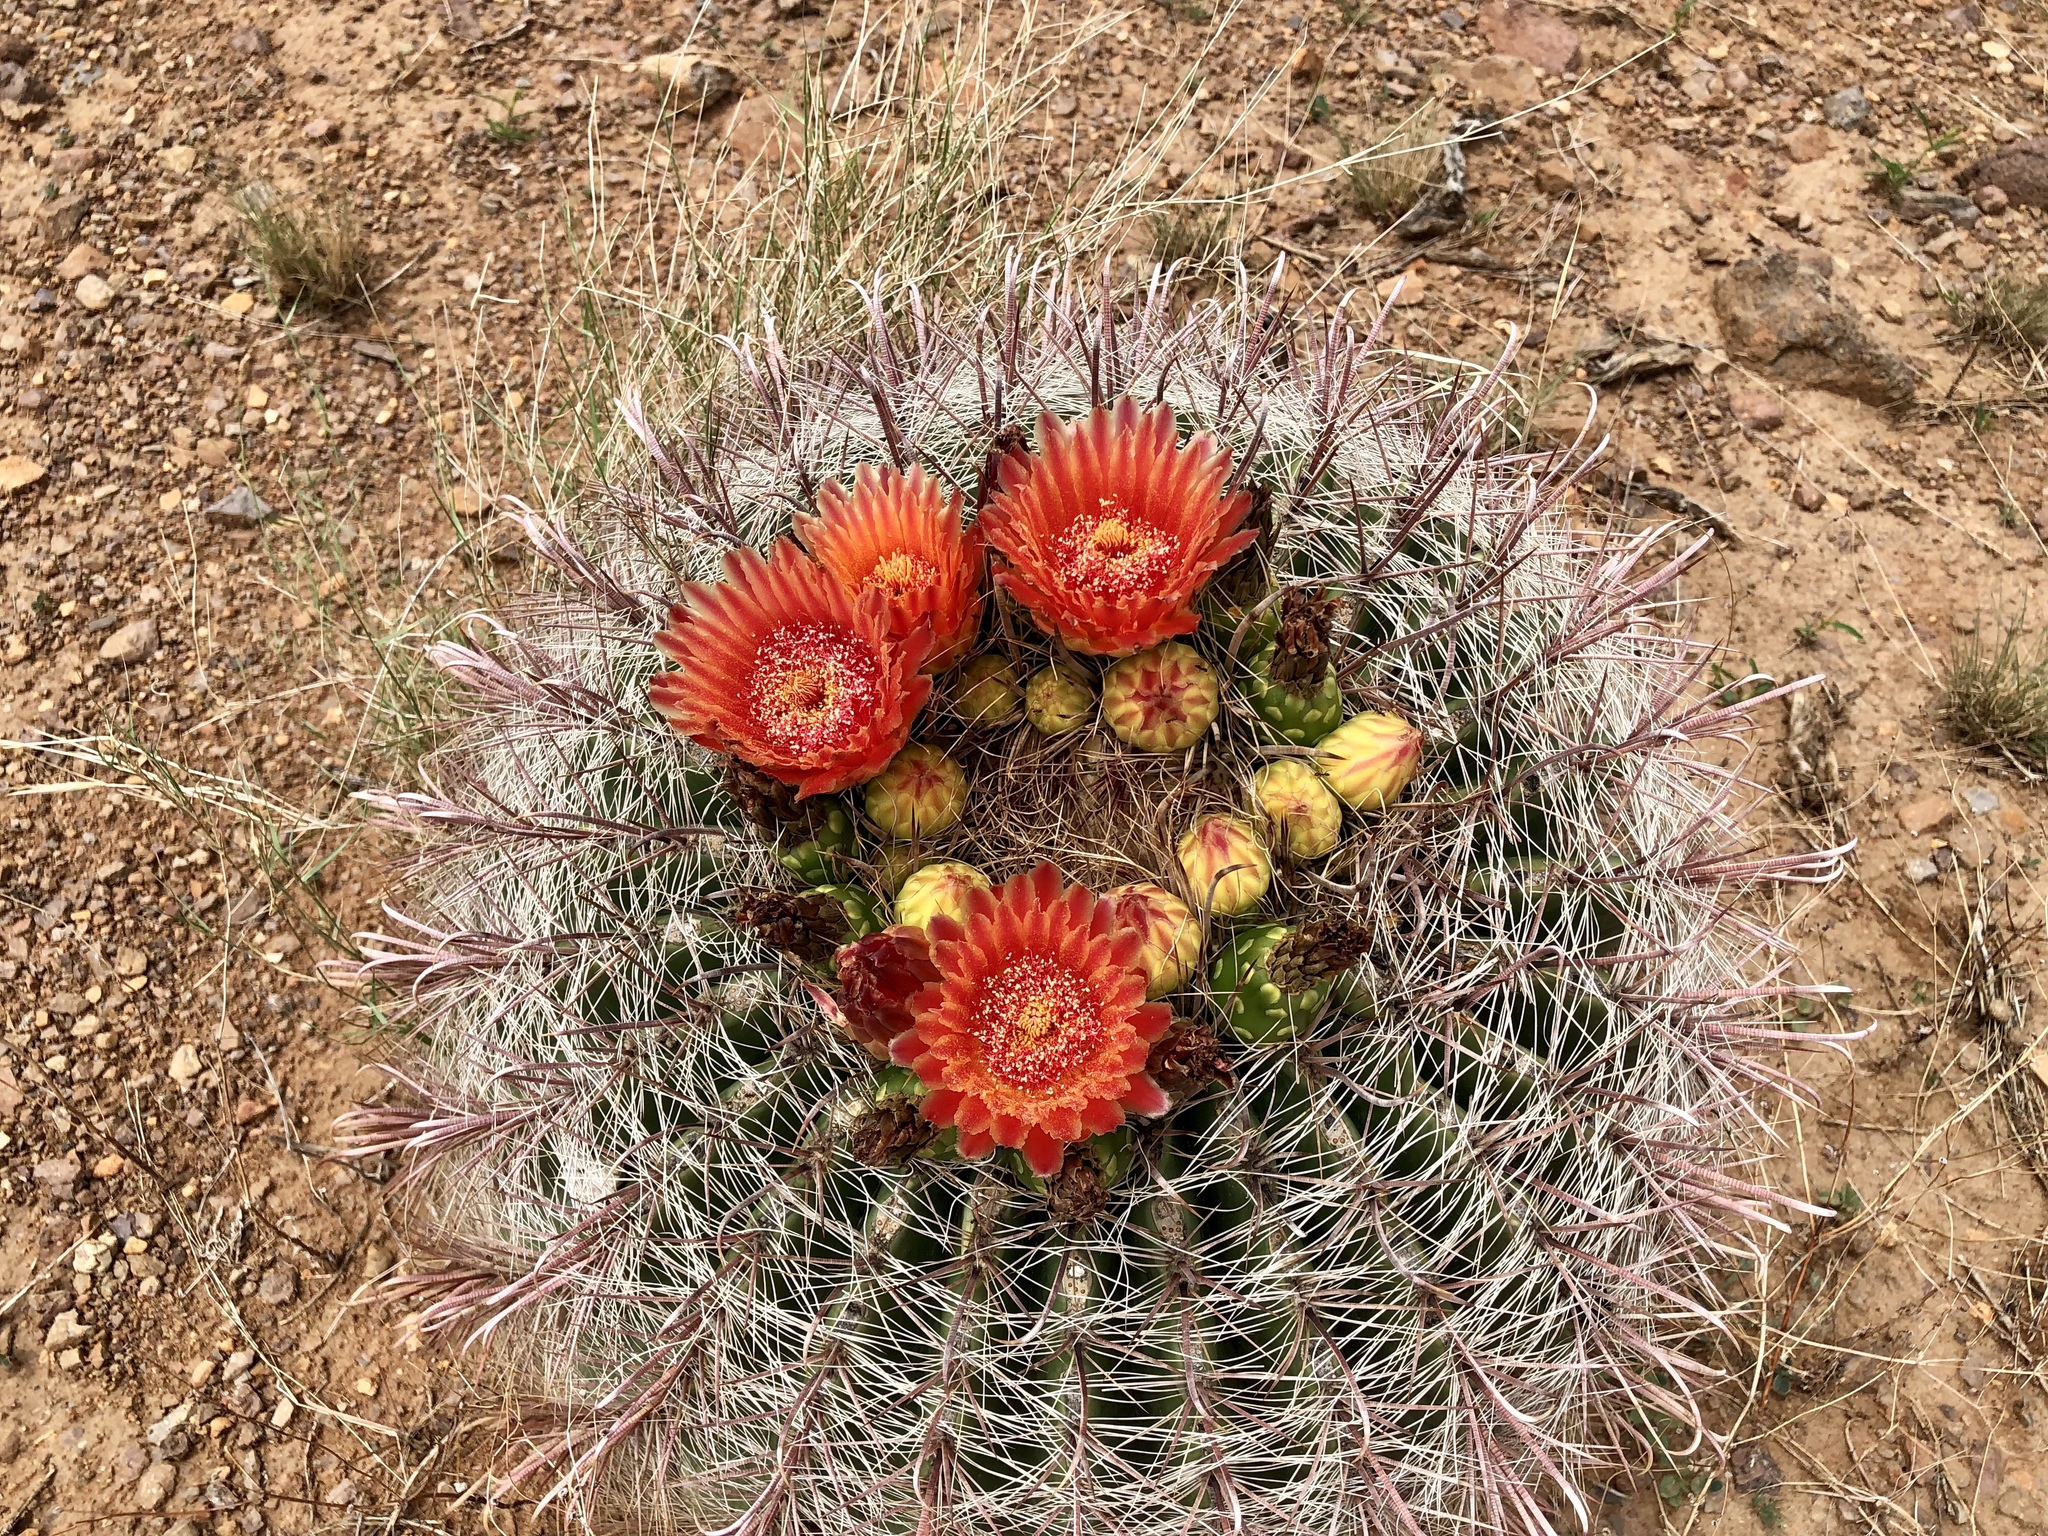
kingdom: Plantae
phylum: Tracheophyta
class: Magnoliopsida
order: Caryophyllales
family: Cactaceae
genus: Ferocactus
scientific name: Ferocactus wislizeni
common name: Candy barrel cactus
